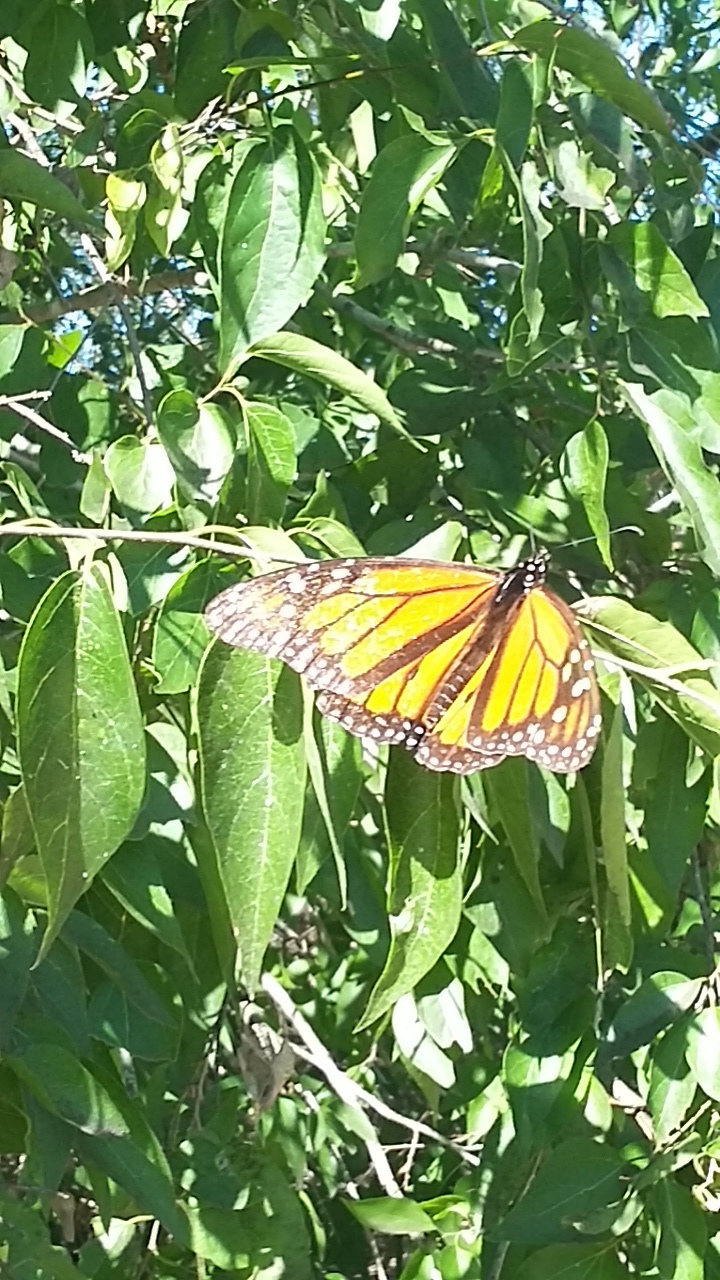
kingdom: Animalia
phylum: Arthropoda
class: Insecta
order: Lepidoptera
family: Nymphalidae
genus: Danaus
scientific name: Danaus plexippus
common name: Monarch
